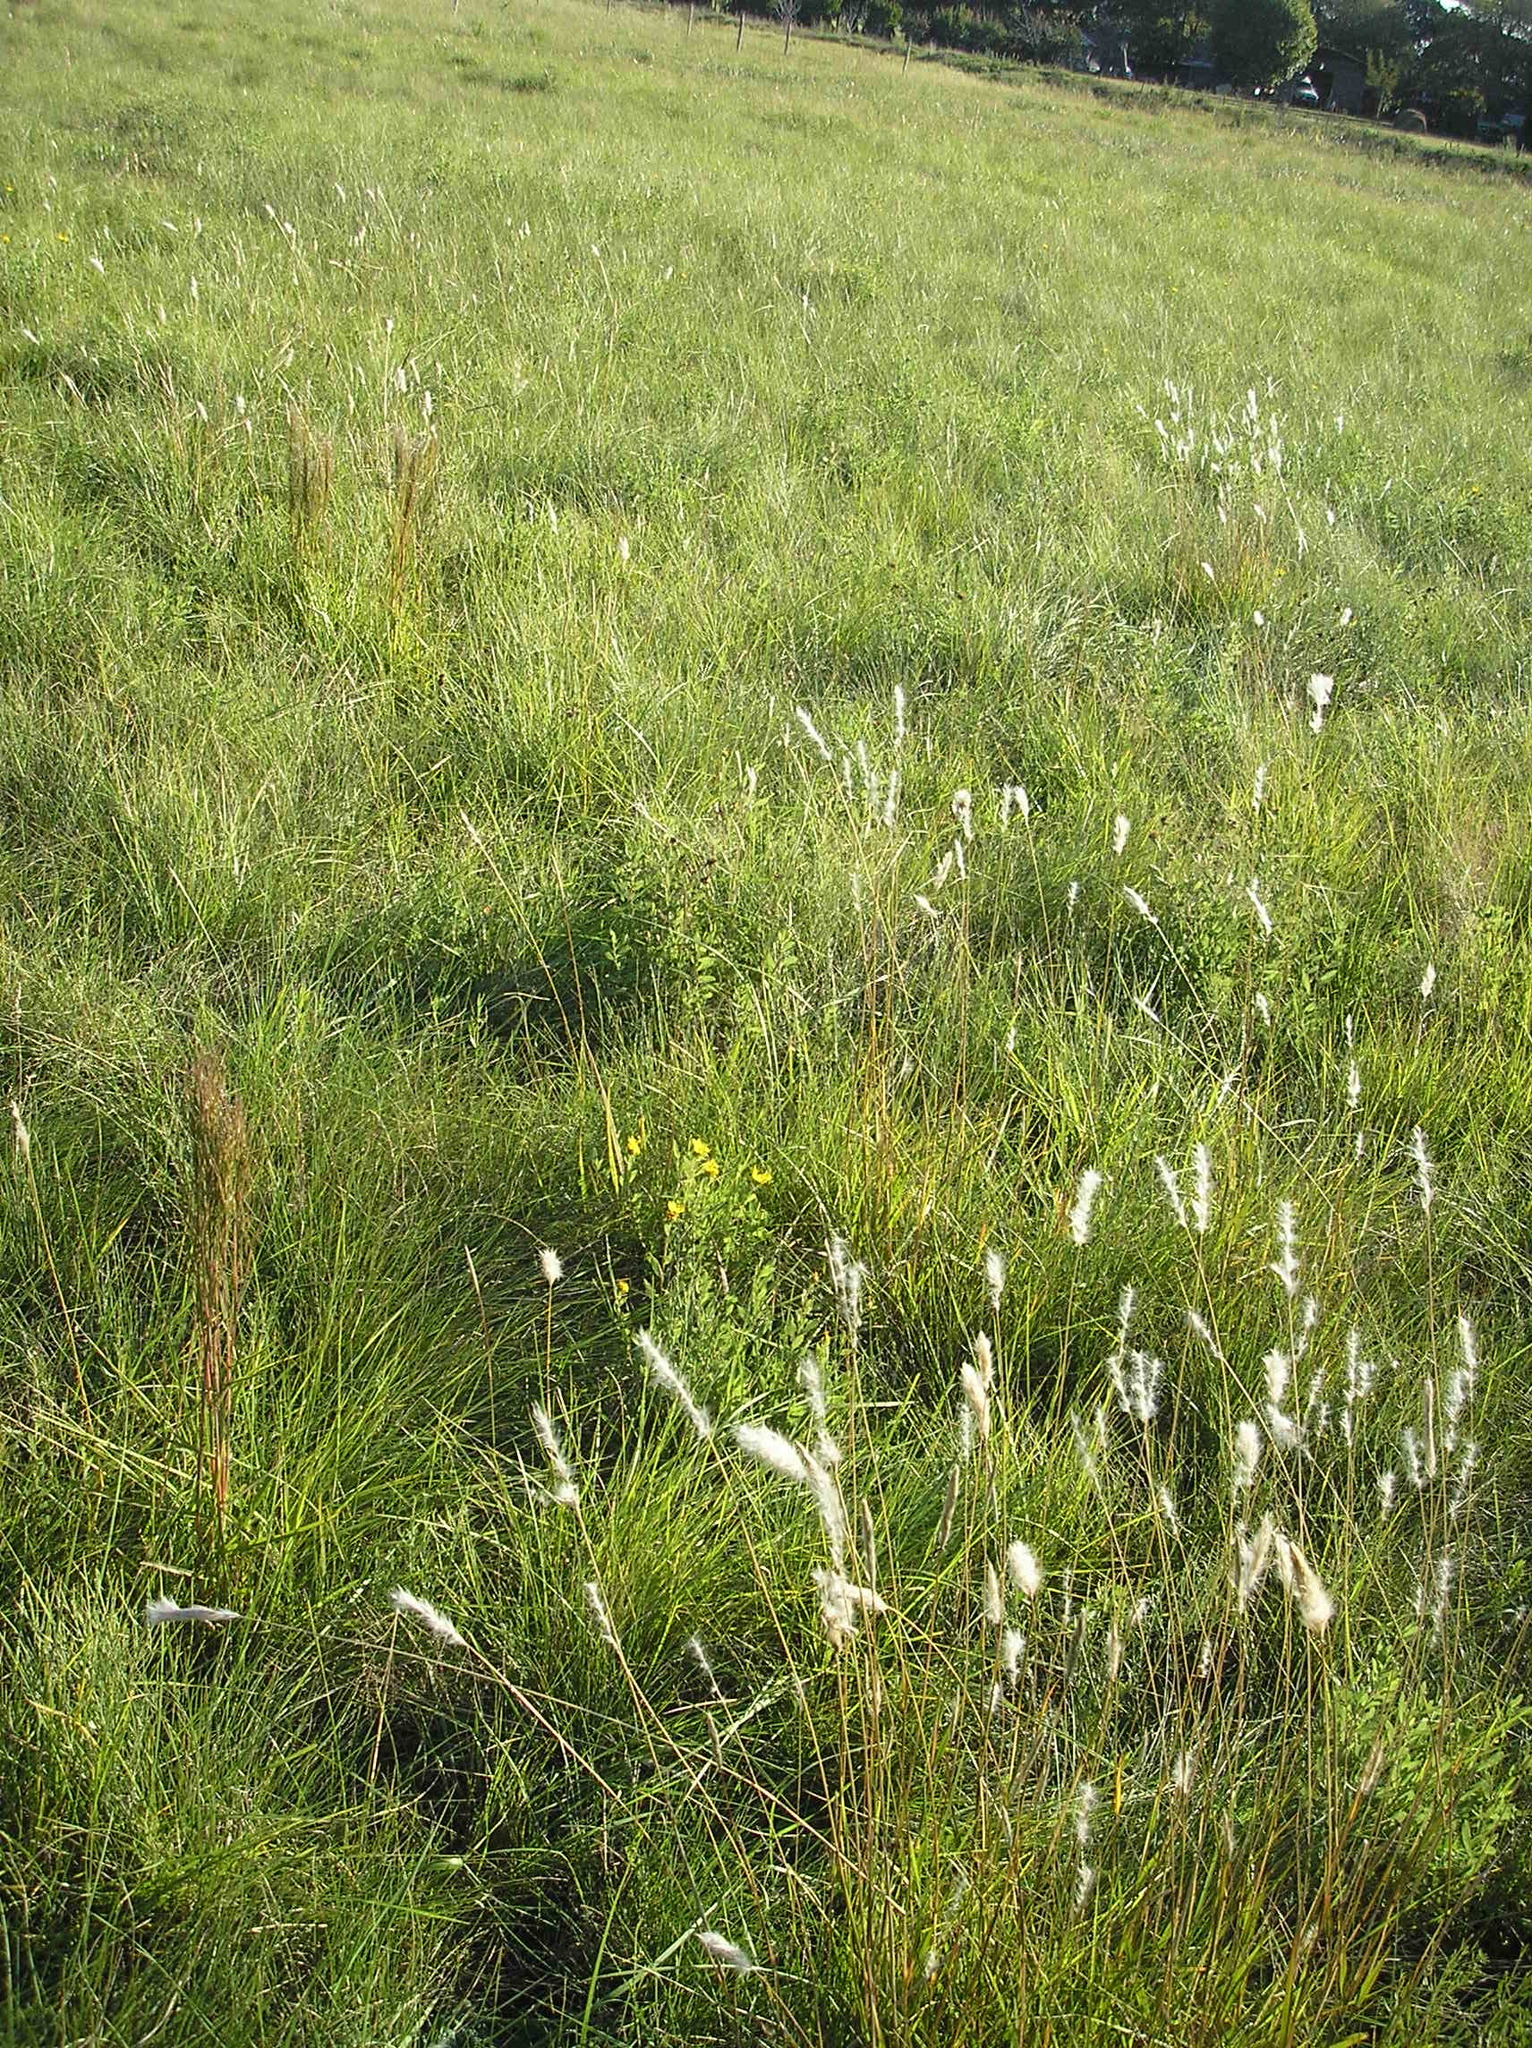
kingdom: Plantae
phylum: Tracheophyta
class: Liliopsida
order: Poales
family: Poaceae
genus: Bothriochloa
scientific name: Bothriochloa laguroides
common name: Silver bluestem
